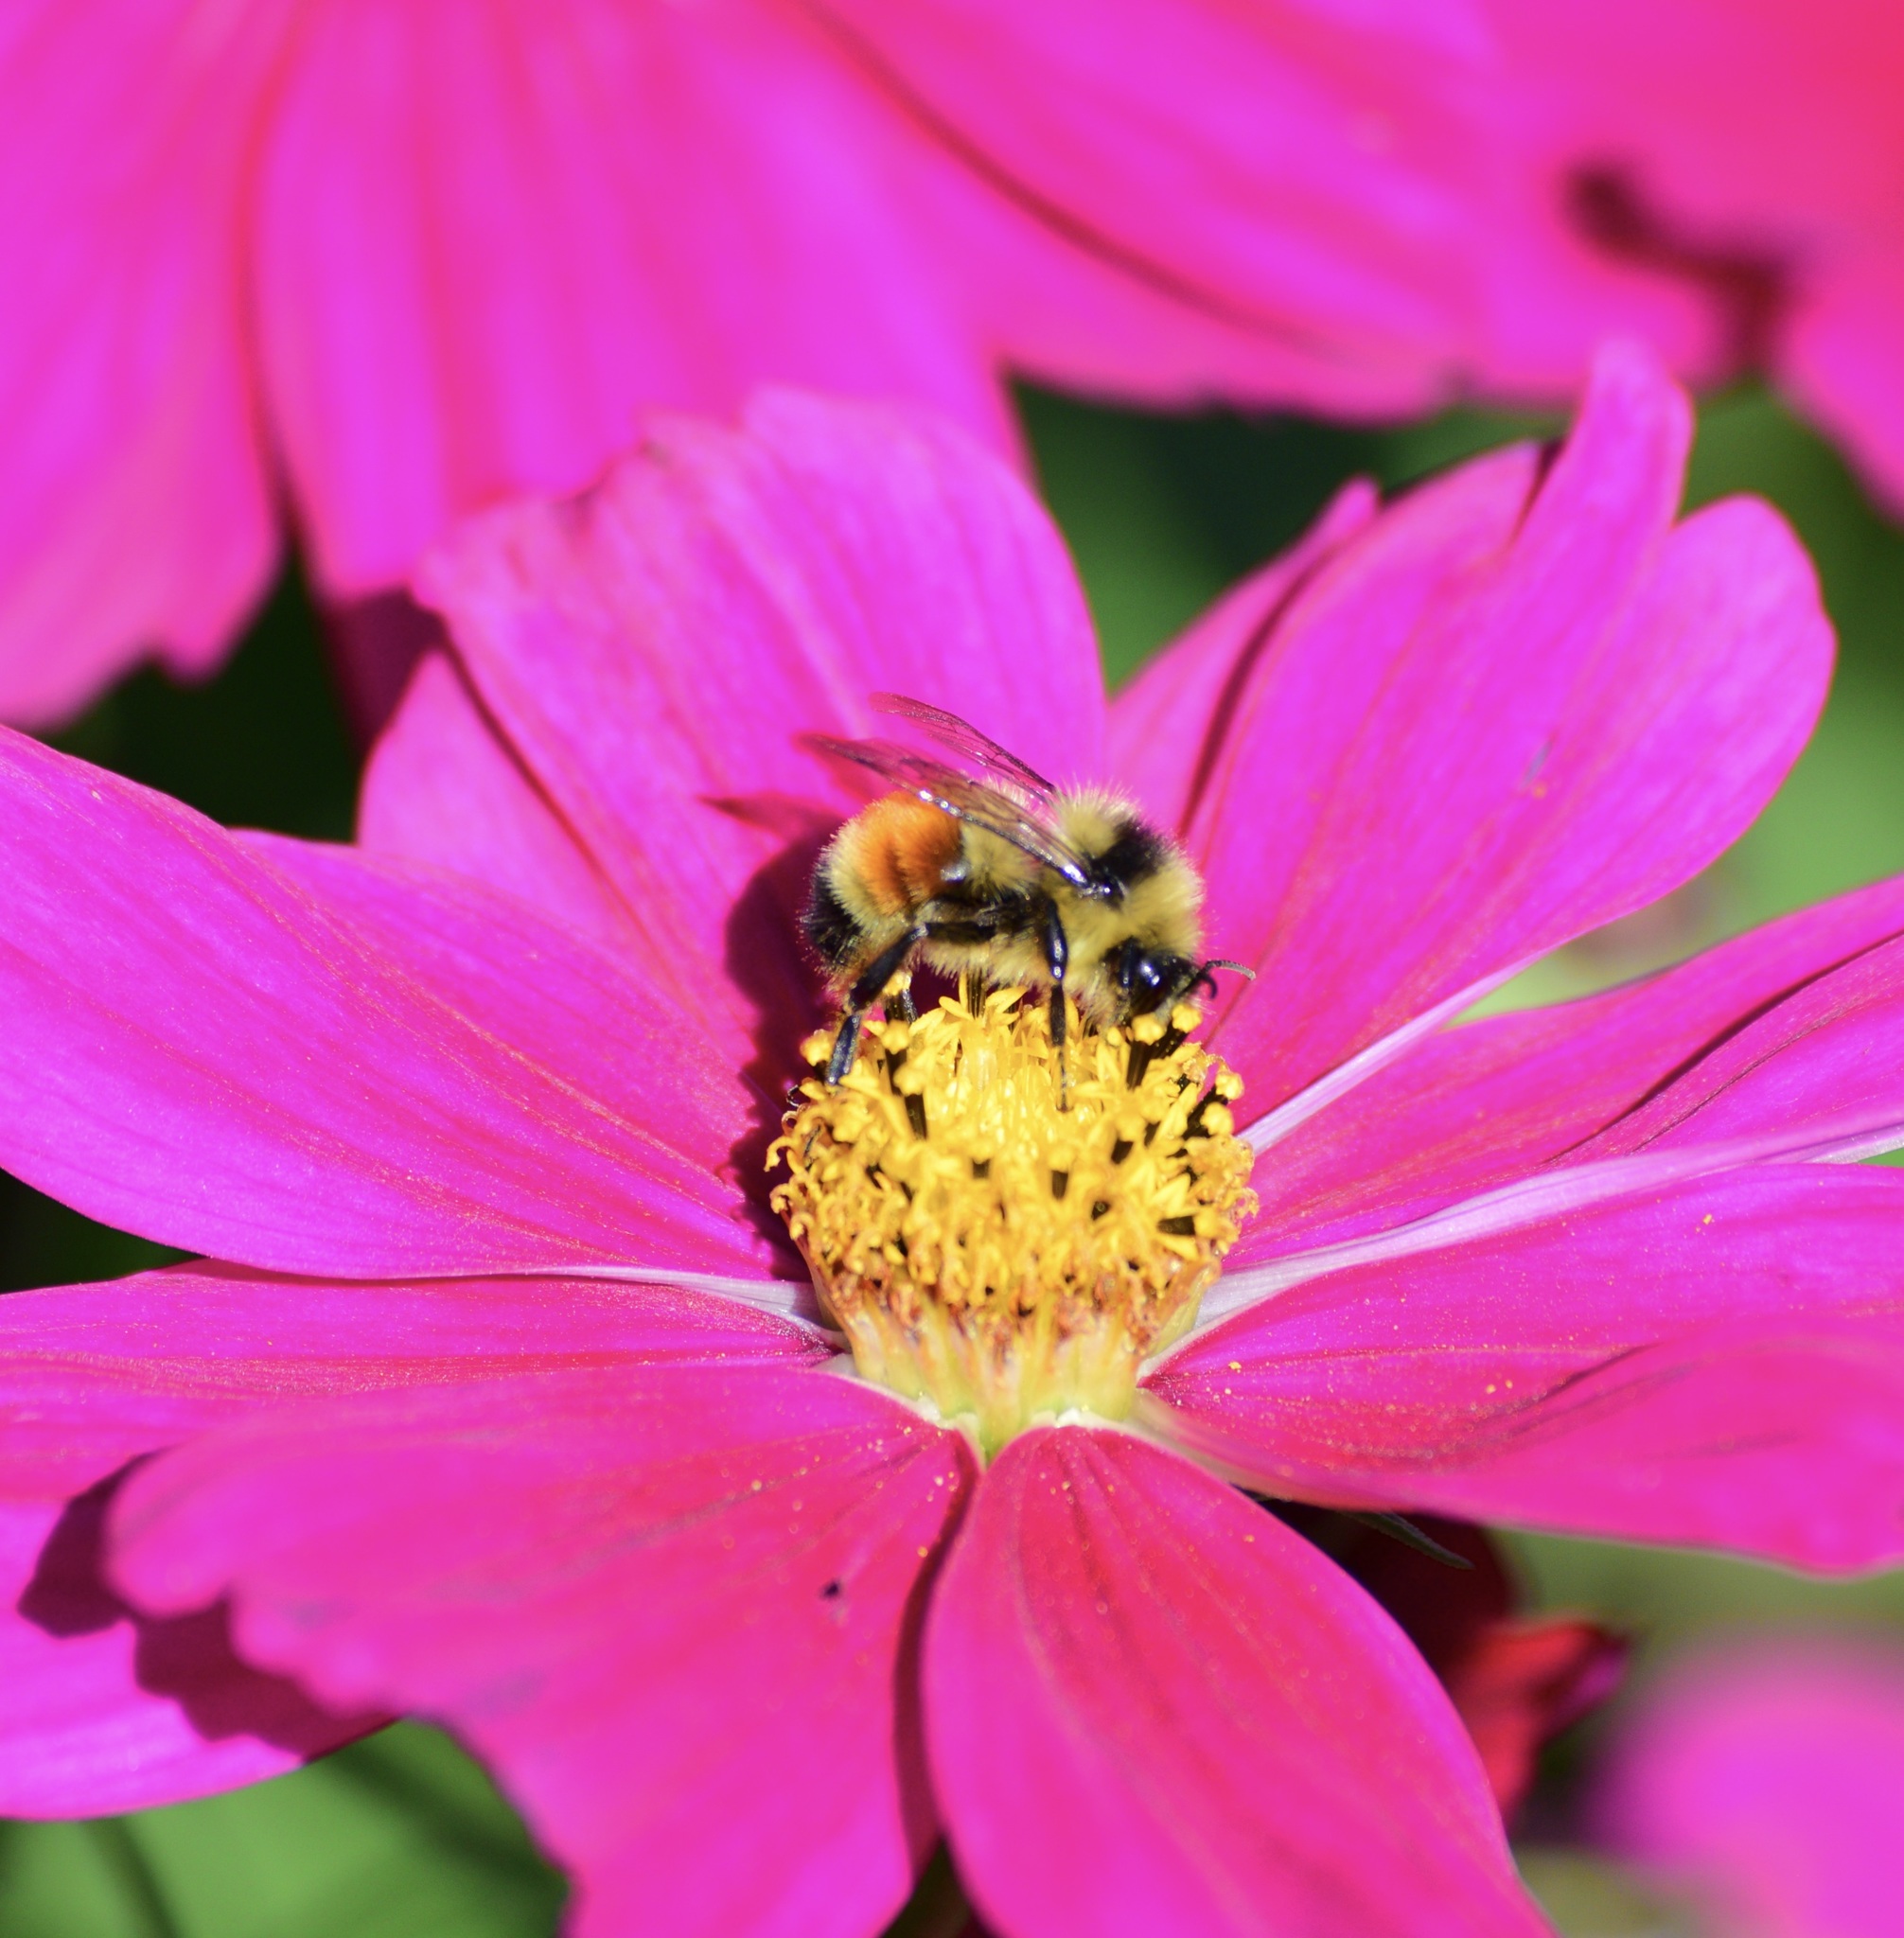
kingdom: Animalia
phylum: Arthropoda
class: Insecta
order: Hymenoptera
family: Apidae
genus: Bombus
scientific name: Bombus ternarius
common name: Tri-colored bumble bee
